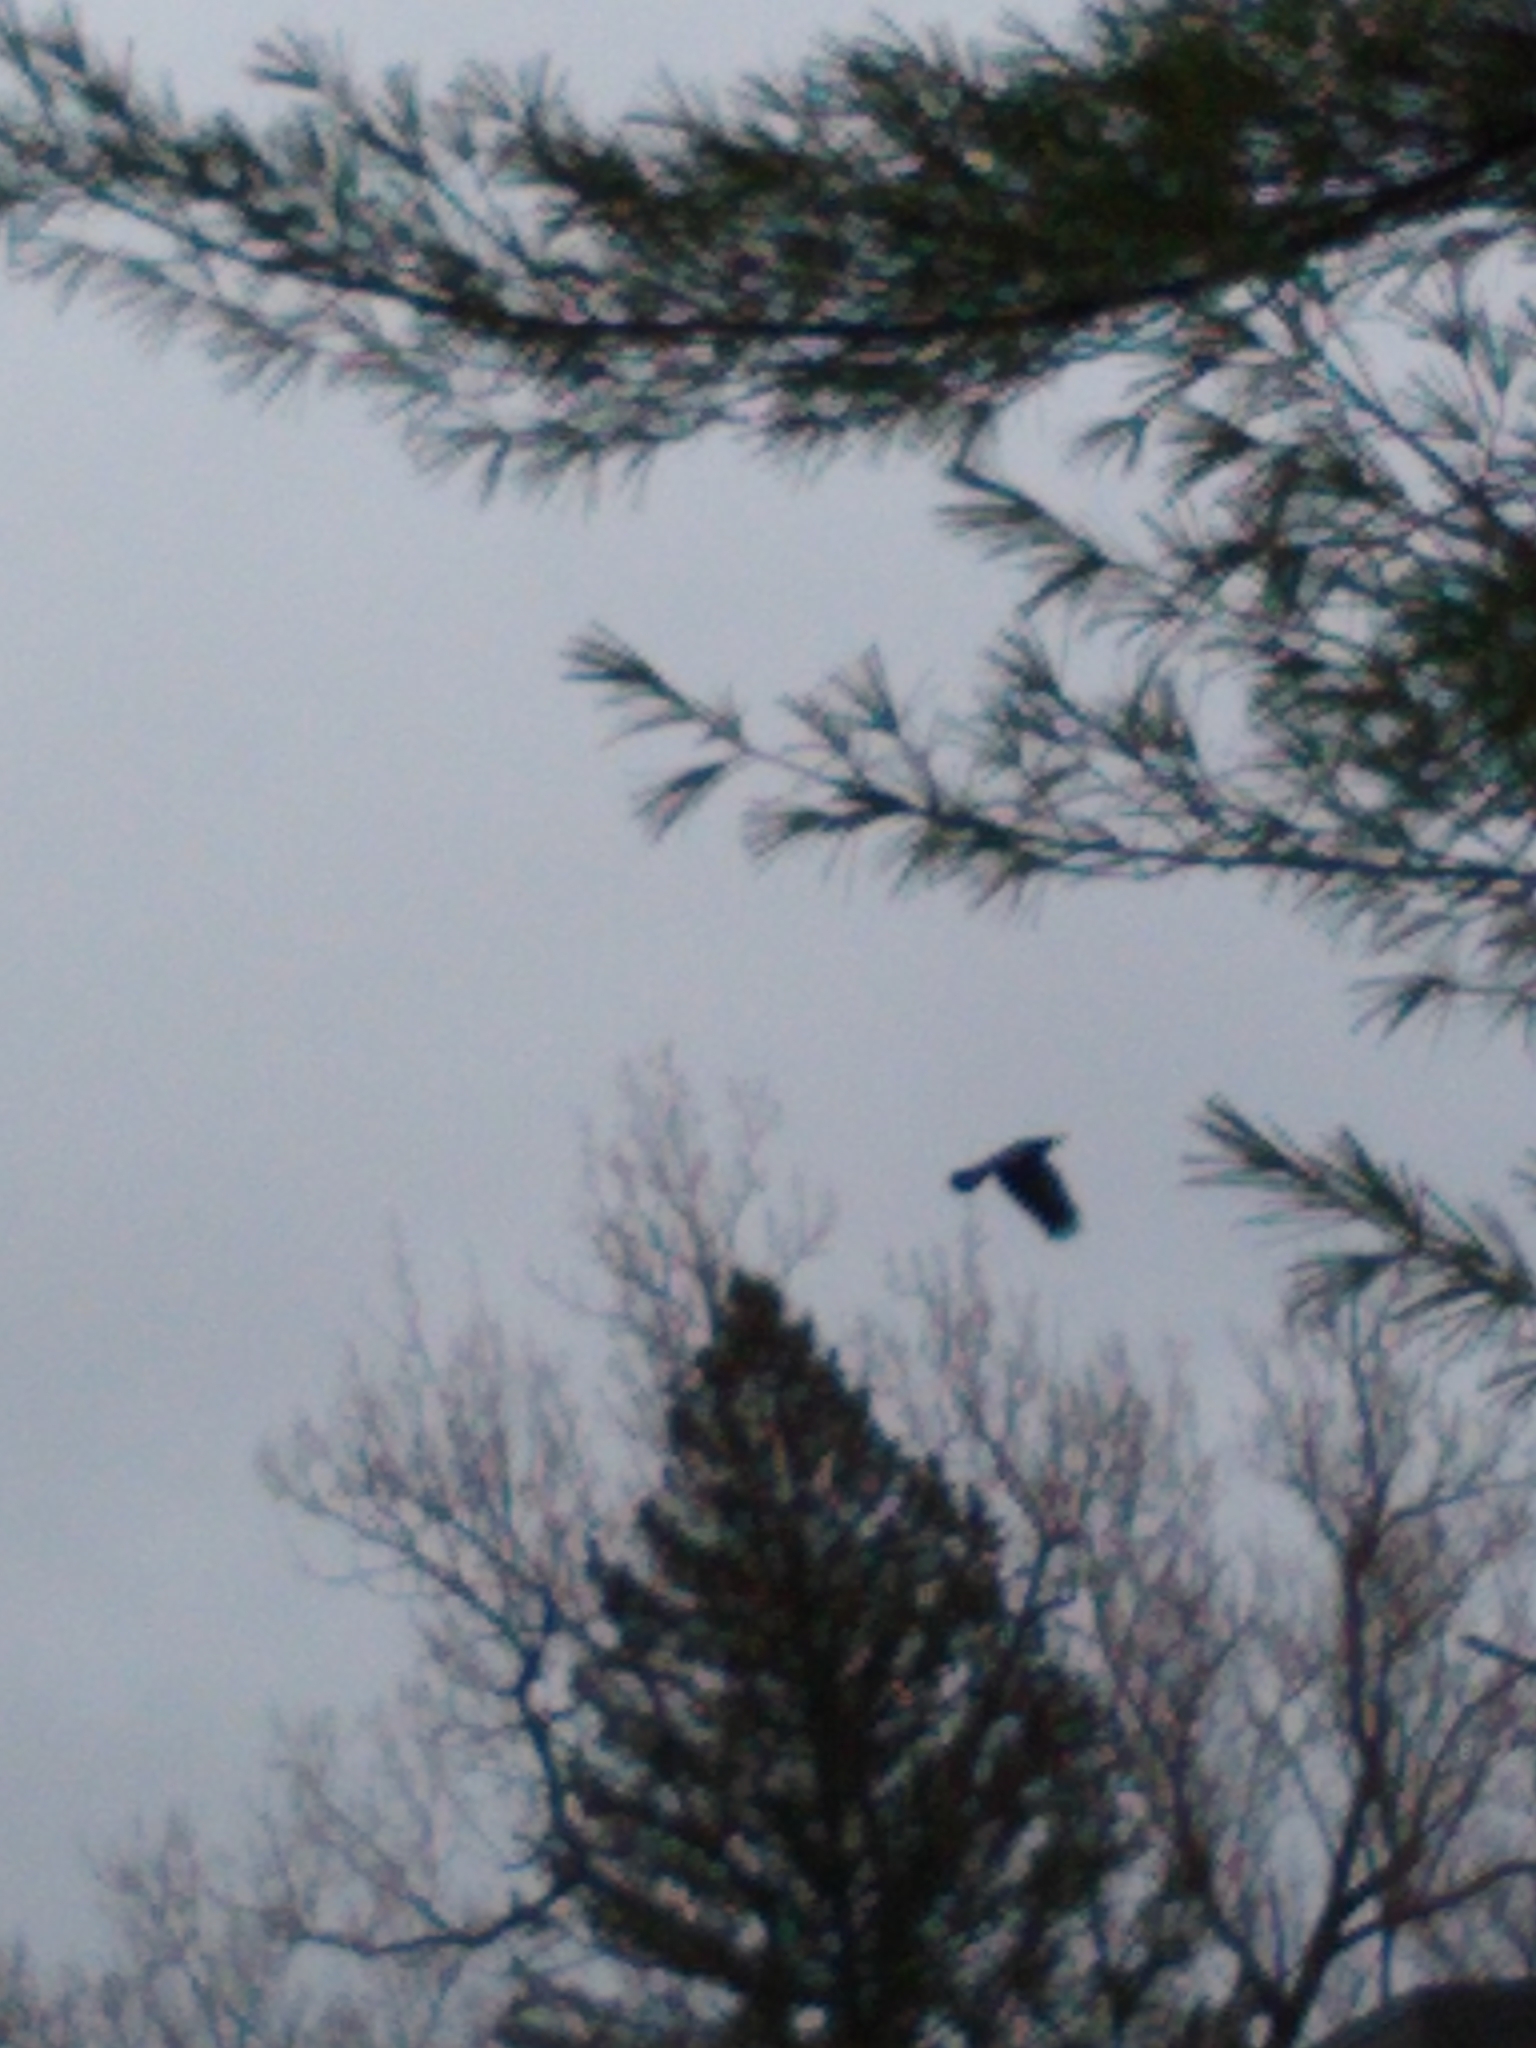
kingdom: Animalia
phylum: Chordata
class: Aves
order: Passeriformes
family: Corvidae
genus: Corvus
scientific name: Corvus brachyrhynchos
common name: American crow
